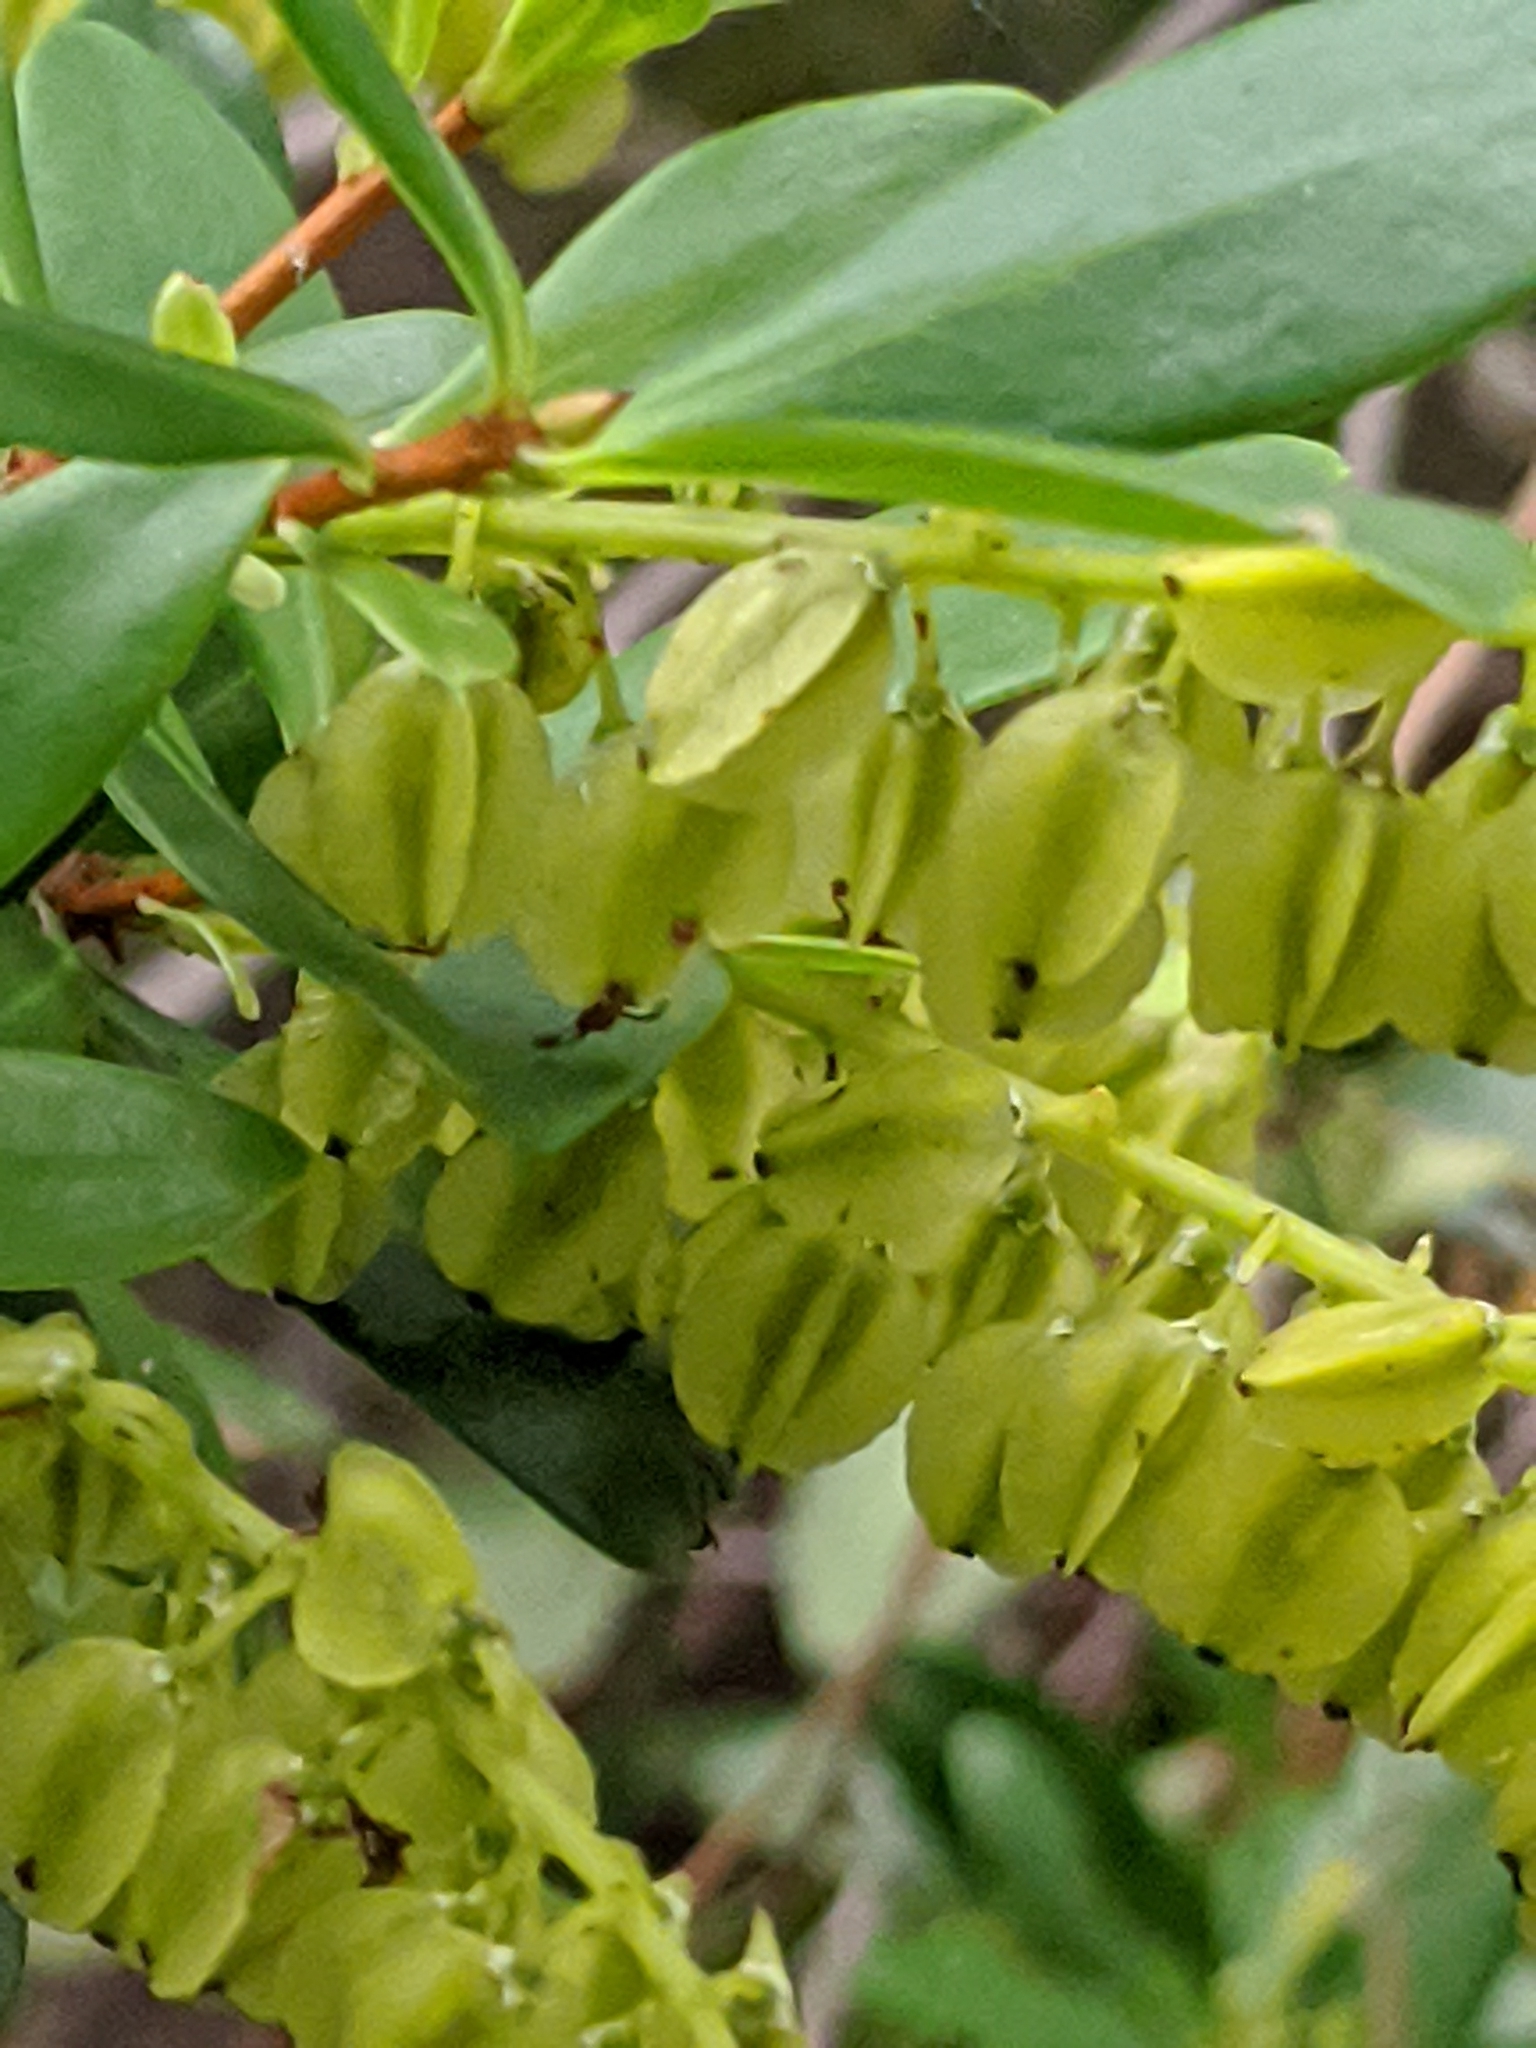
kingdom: Plantae
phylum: Tracheophyta
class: Magnoliopsida
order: Ericales
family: Cyrillaceae
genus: Cliftonia
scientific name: Cliftonia monophylla
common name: Titi
